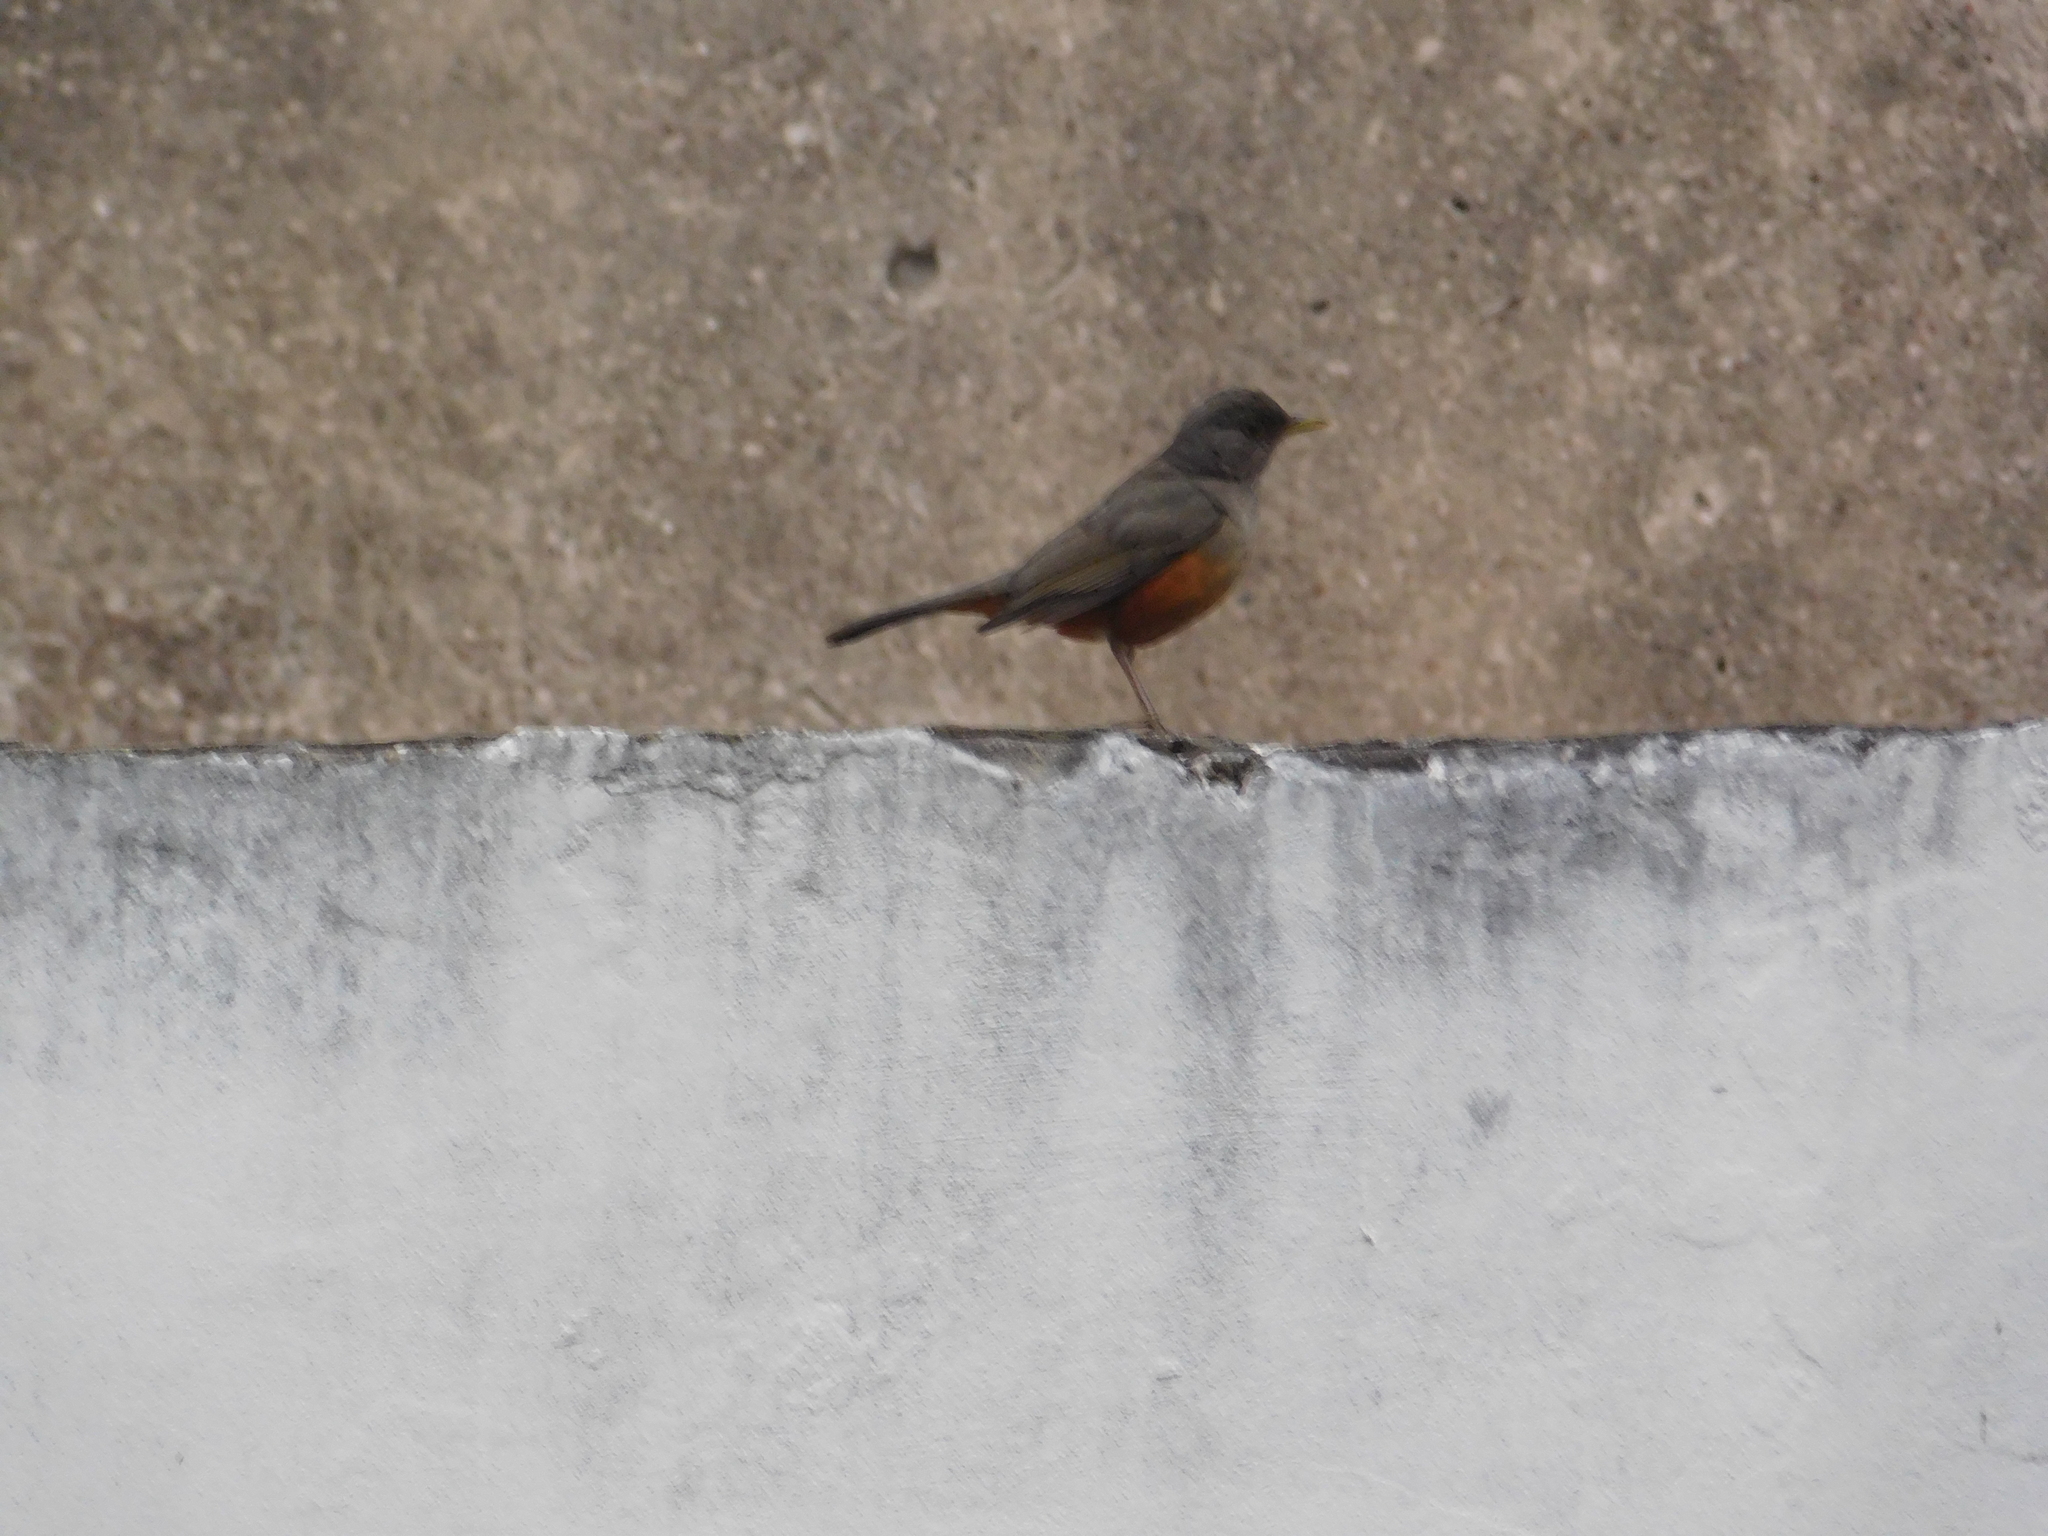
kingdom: Animalia
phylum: Chordata
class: Aves
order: Passeriformes
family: Turdidae
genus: Turdus
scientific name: Turdus rufiventris
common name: Rufous-bellied thrush
